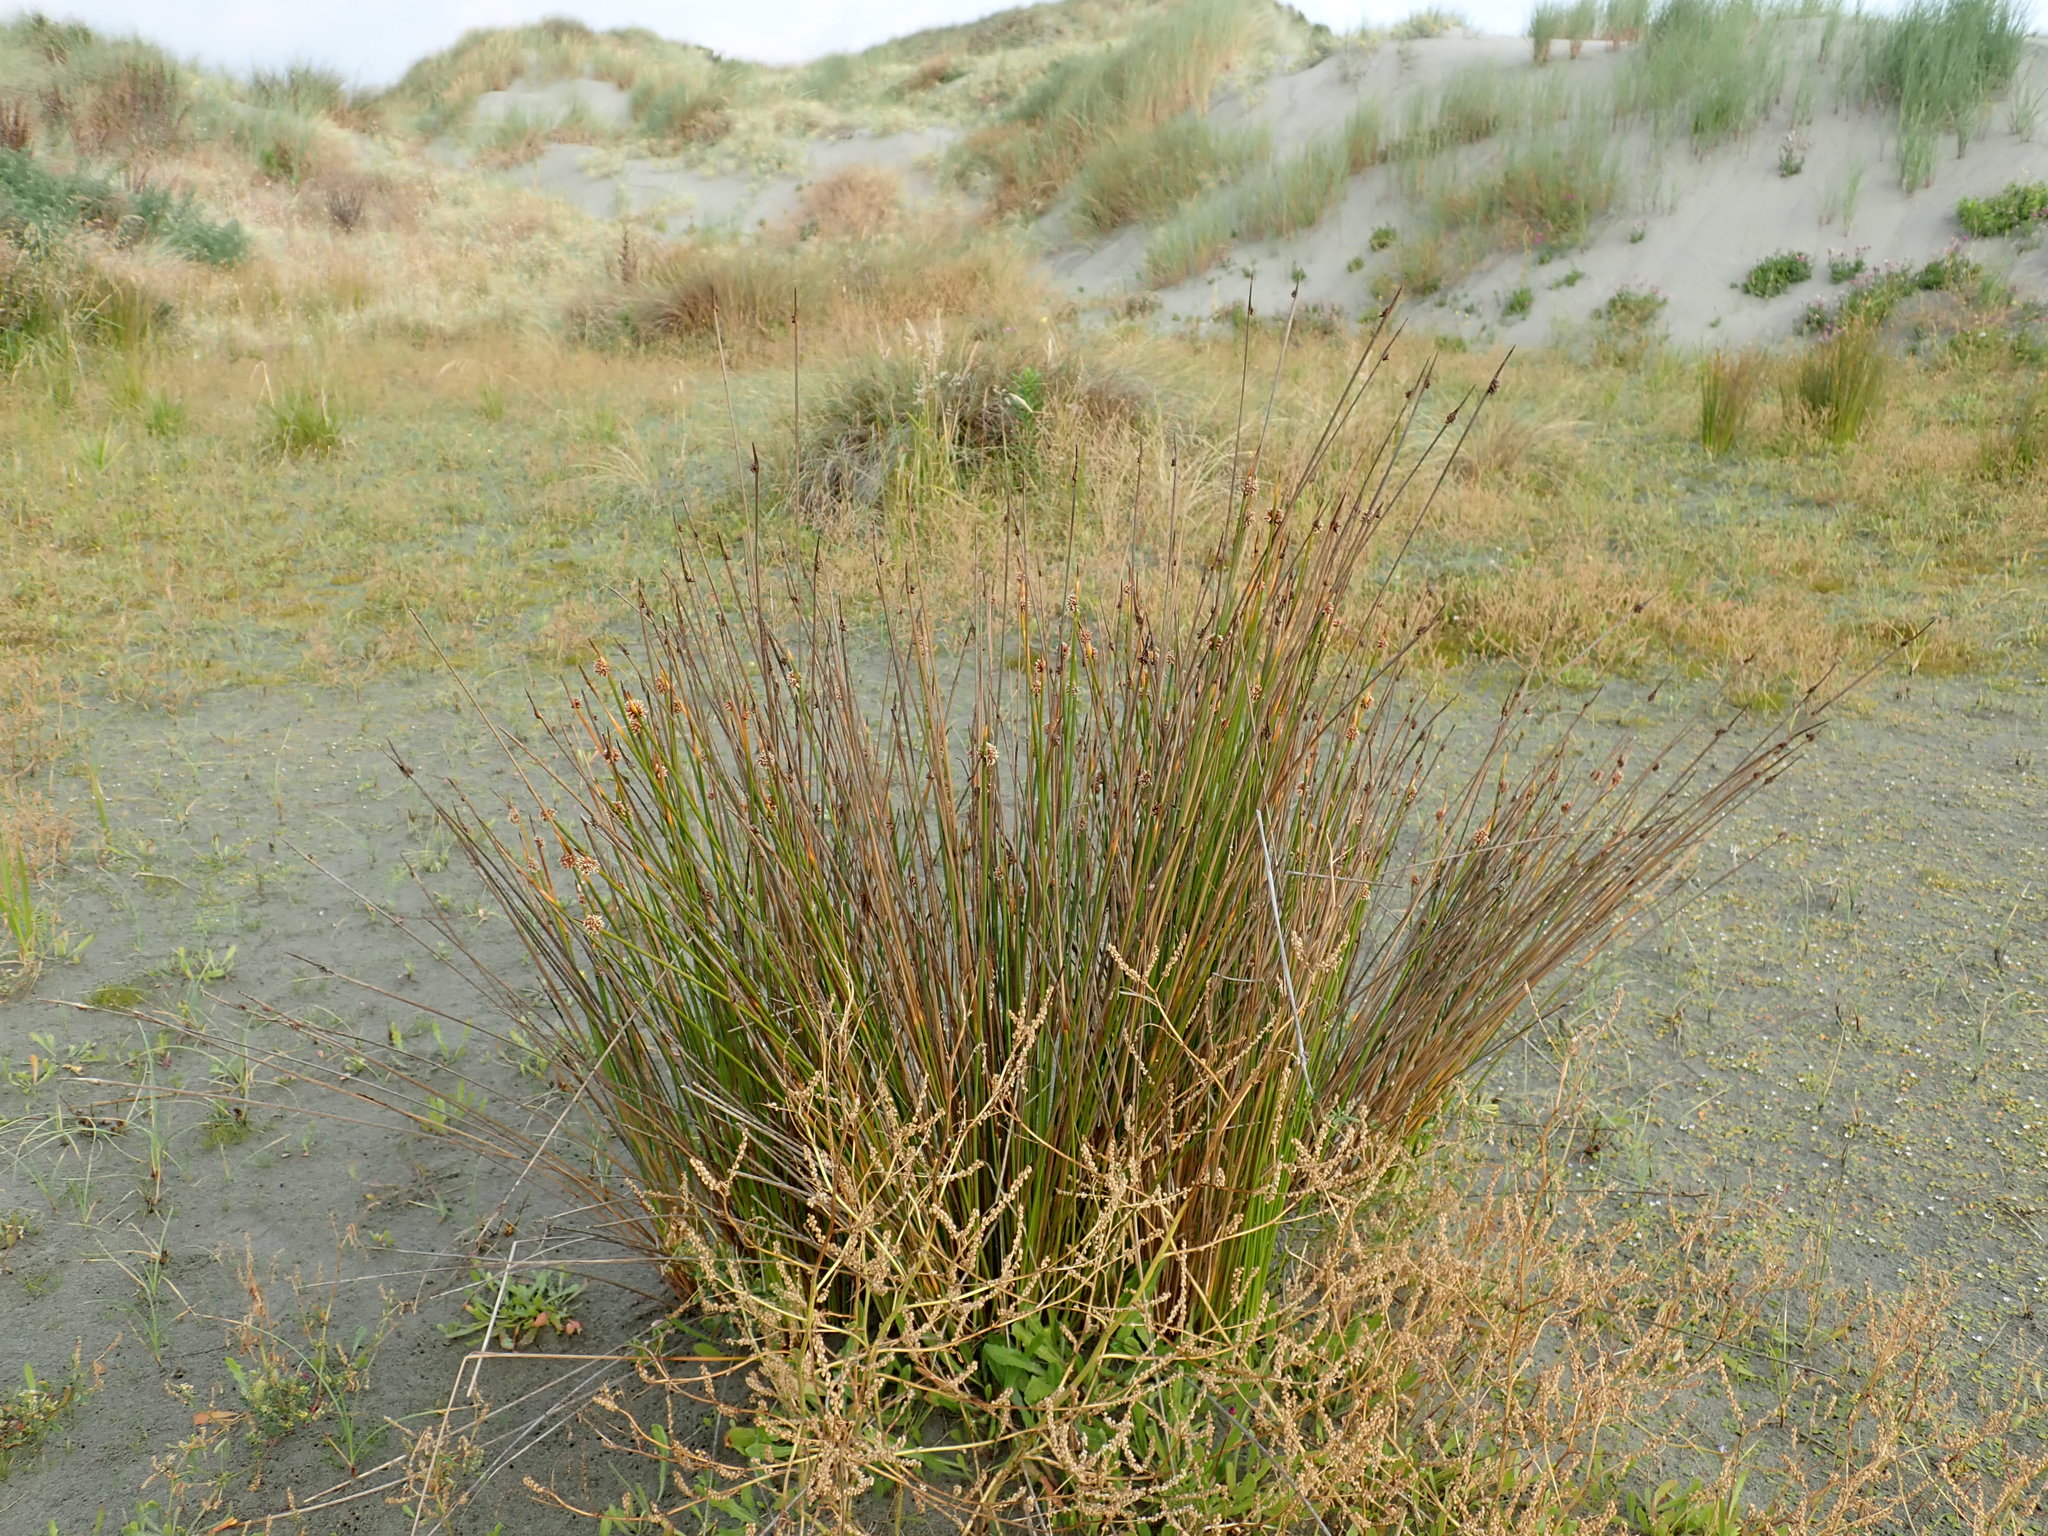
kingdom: Plantae
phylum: Tracheophyta
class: Liliopsida
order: Poales
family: Cyperaceae
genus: Ficinia
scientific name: Ficinia nodosa
